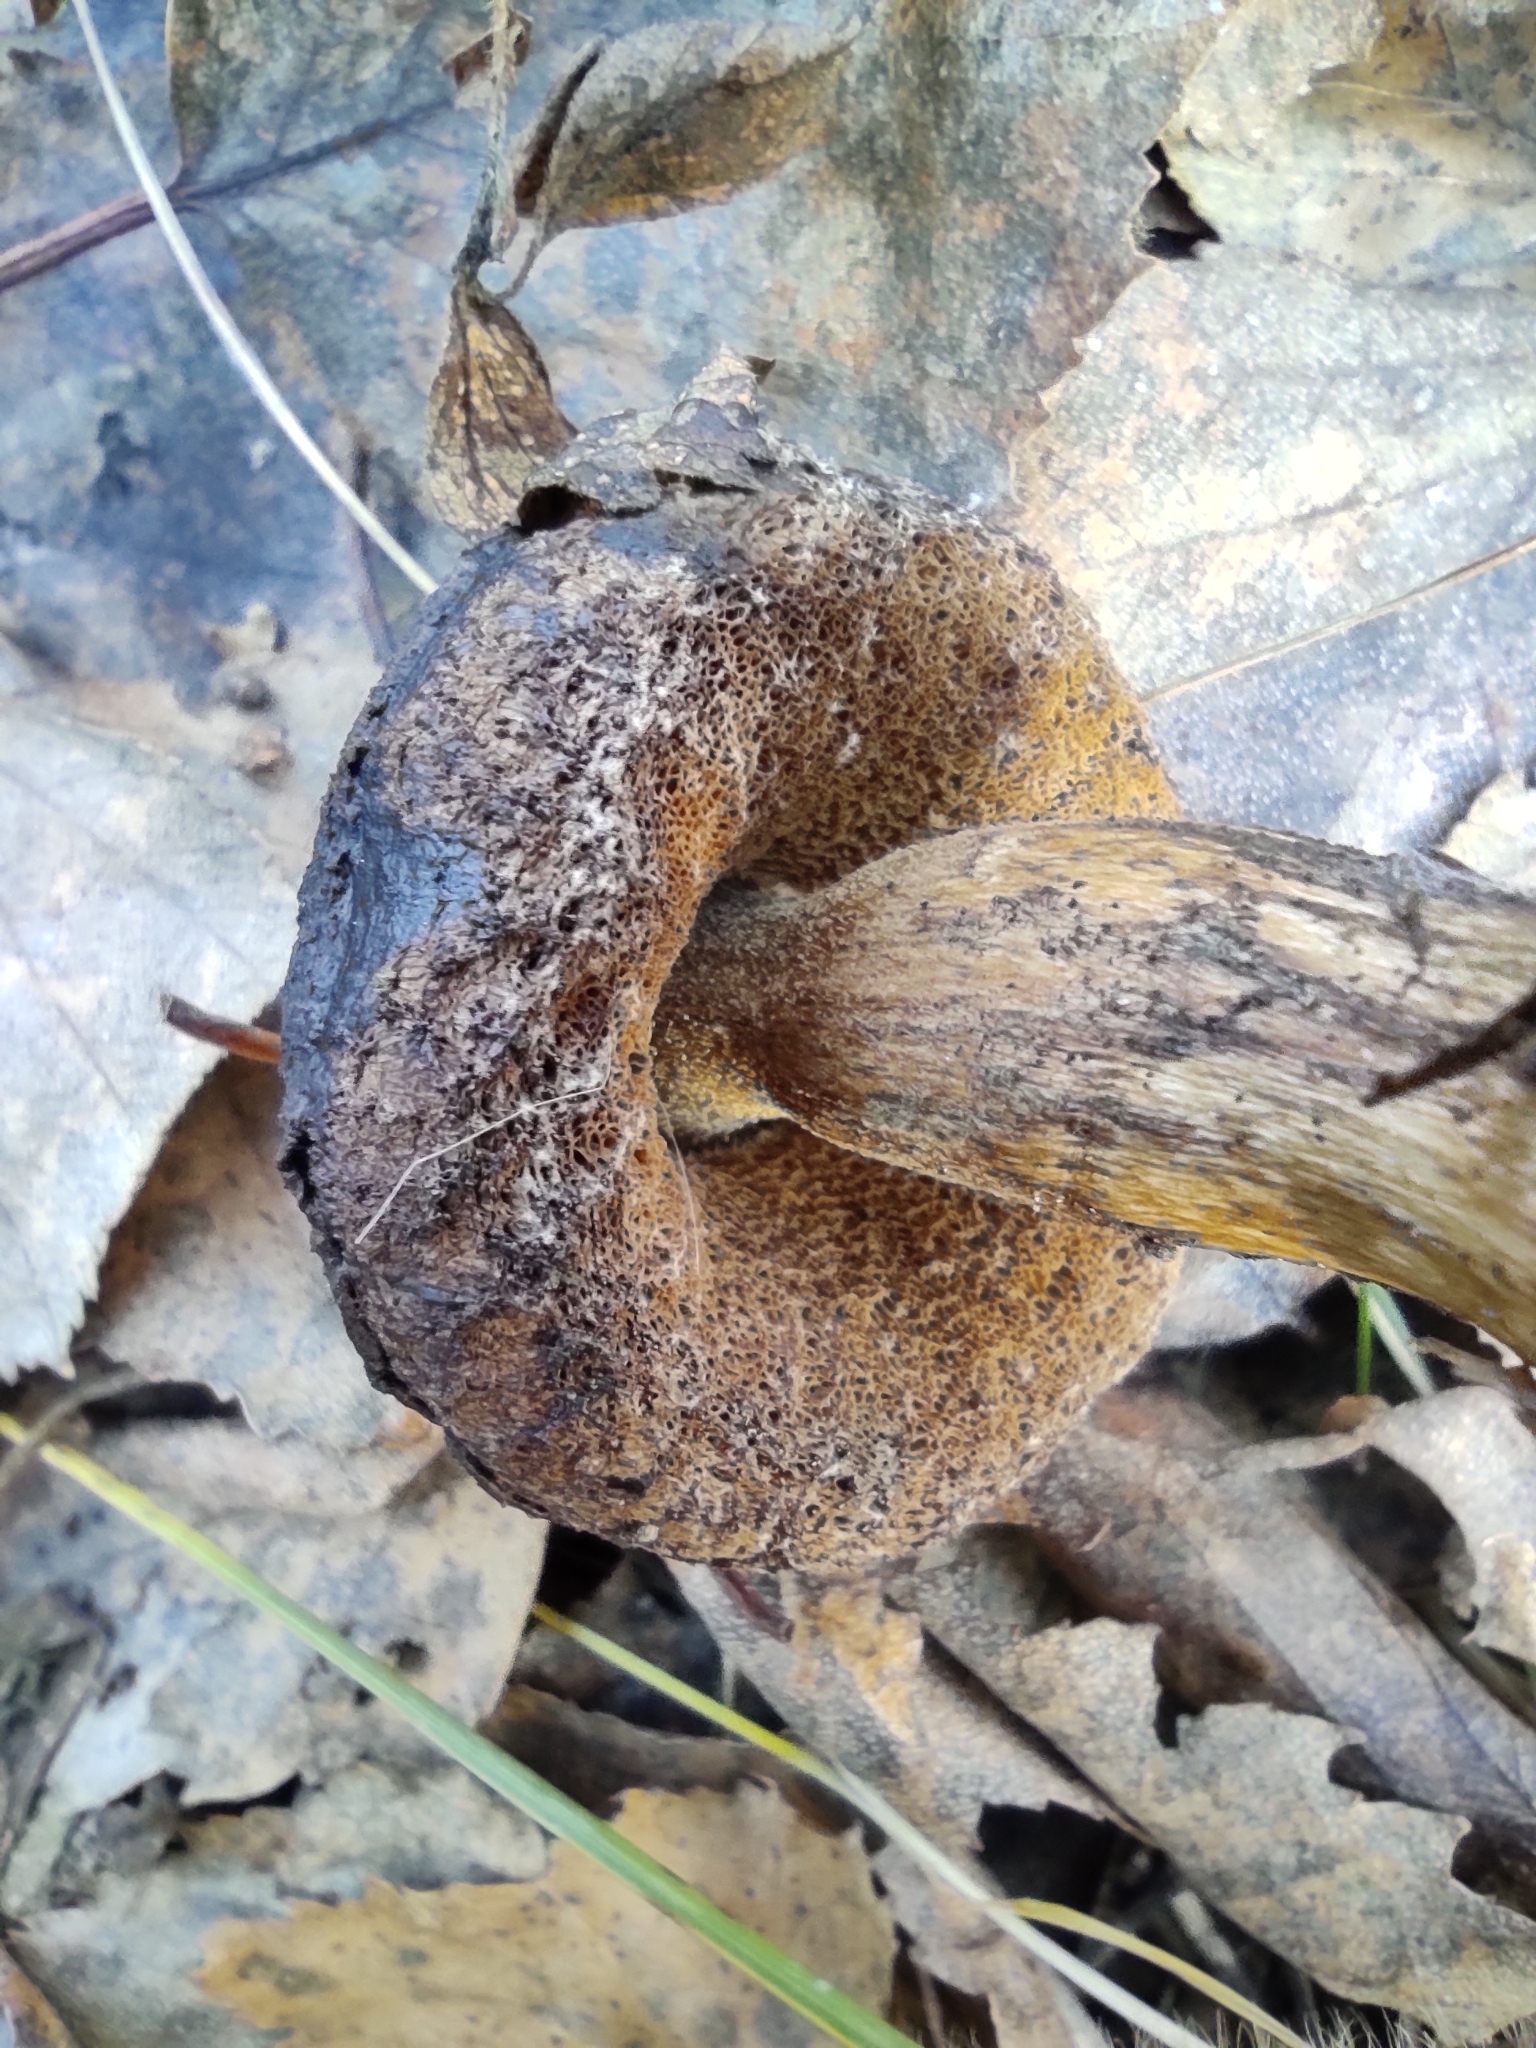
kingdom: Fungi
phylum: Basidiomycota
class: Agaricomycetes
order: Boletales
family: Boletaceae
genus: Leccinum
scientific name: Leccinum scabrum
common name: Blushing bolete
